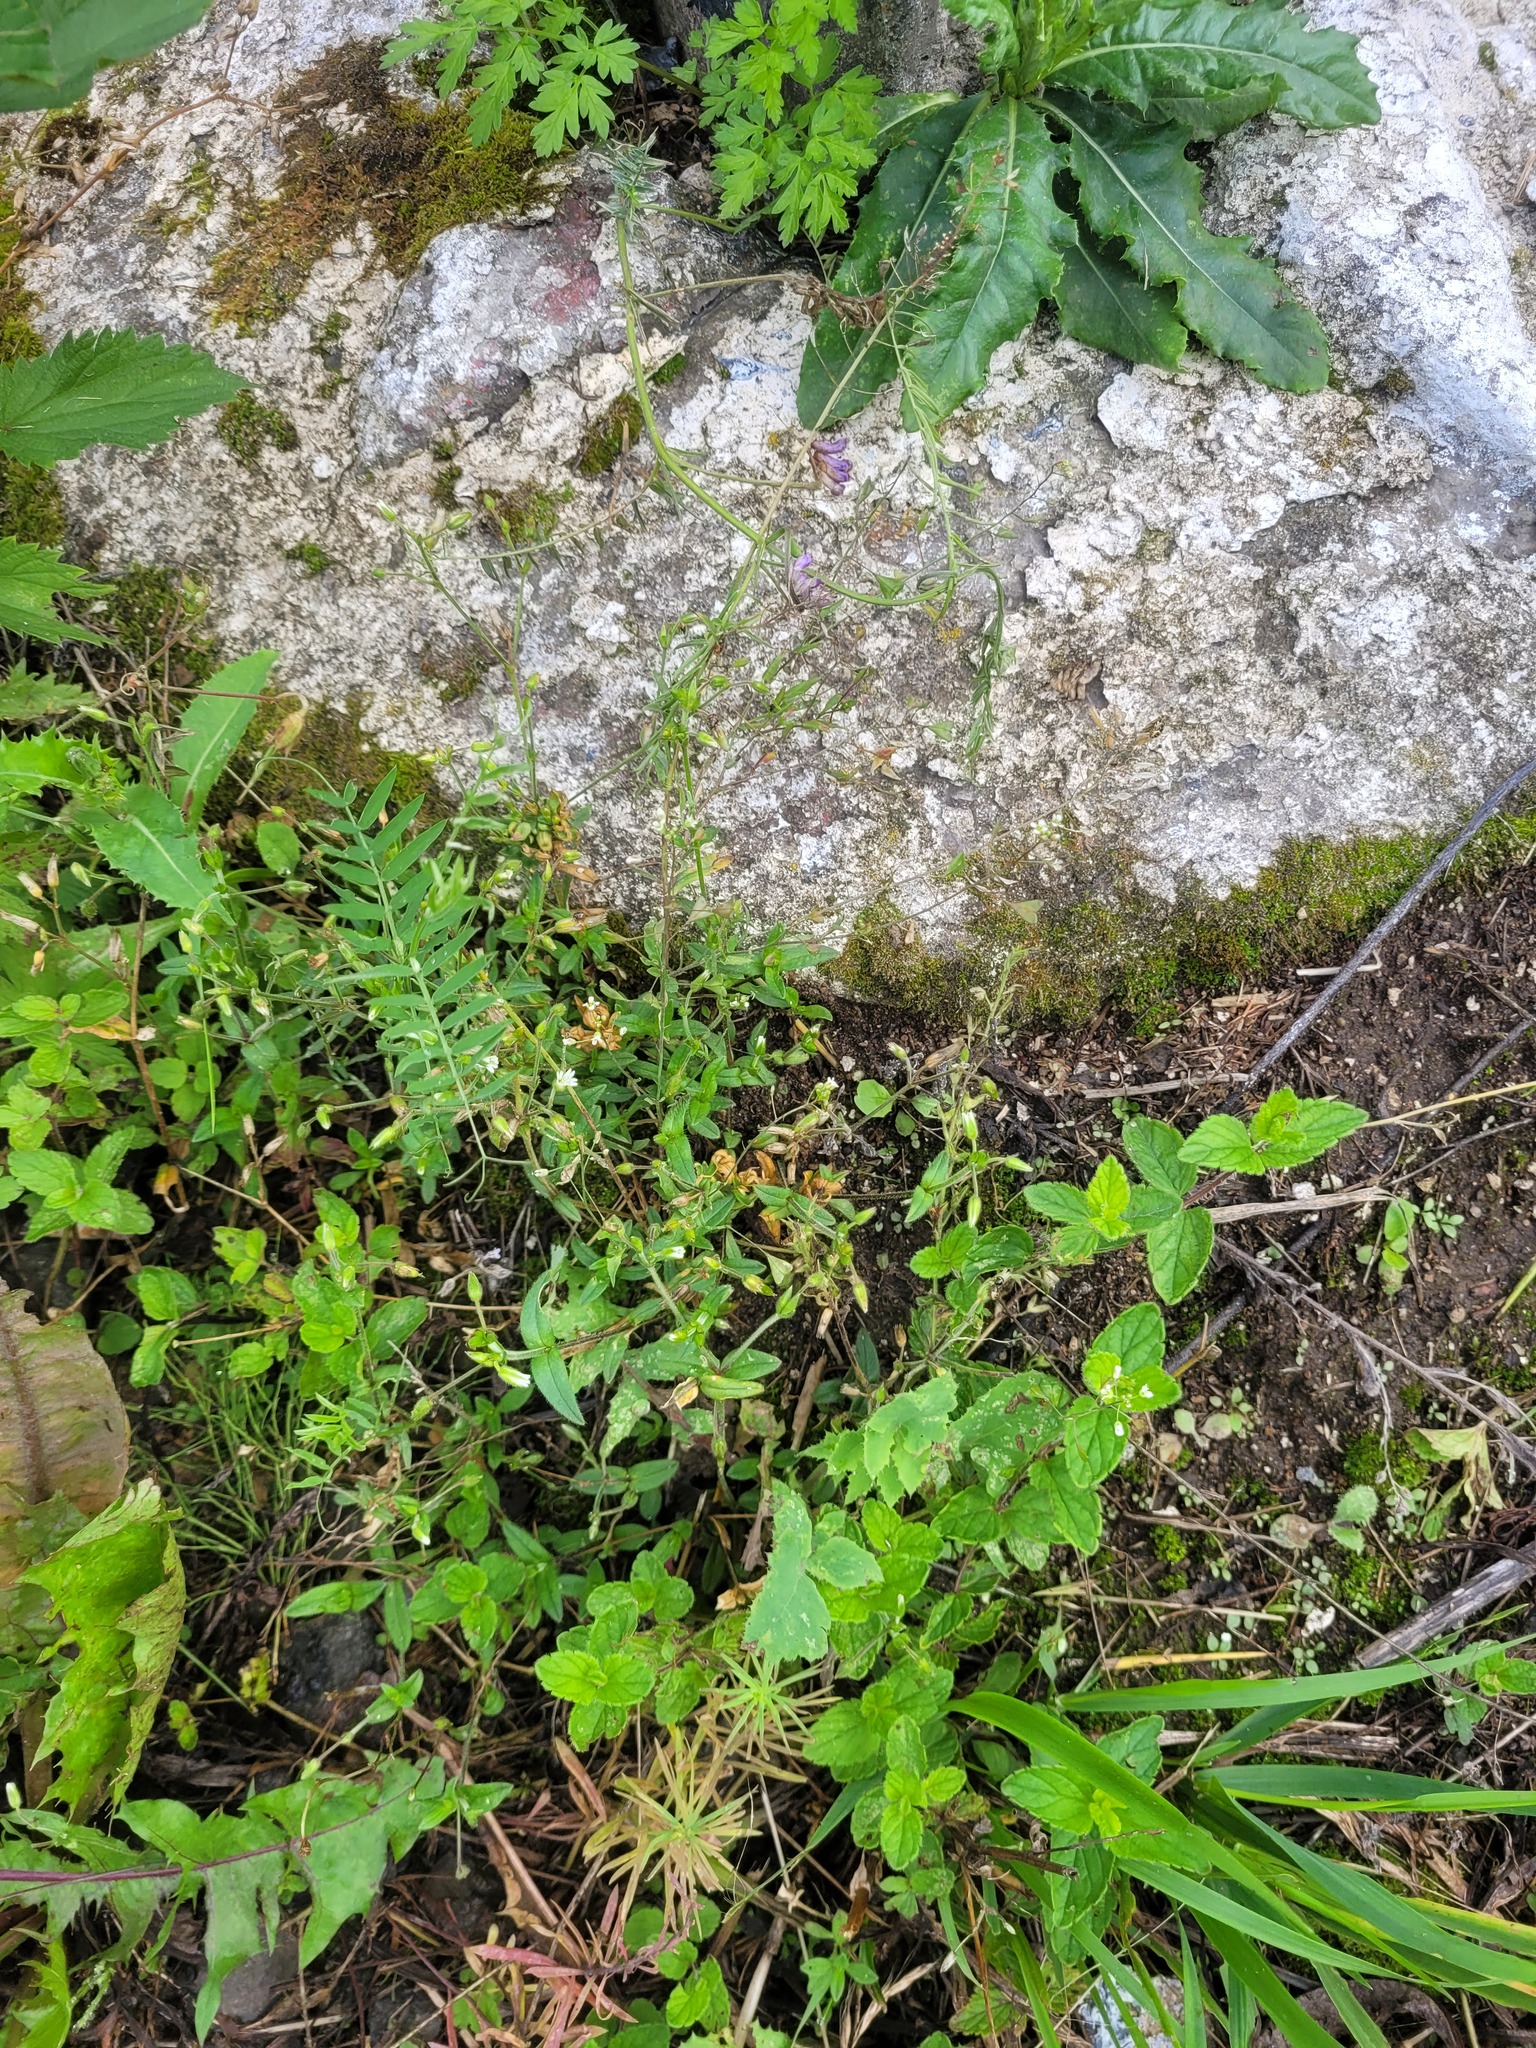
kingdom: Plantae
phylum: Tracheophyta
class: Magnoliopsida
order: Caryophyllales
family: Caryophyllaceae
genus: Cerastium
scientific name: Cerastium holosteoides
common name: Big chickweed
